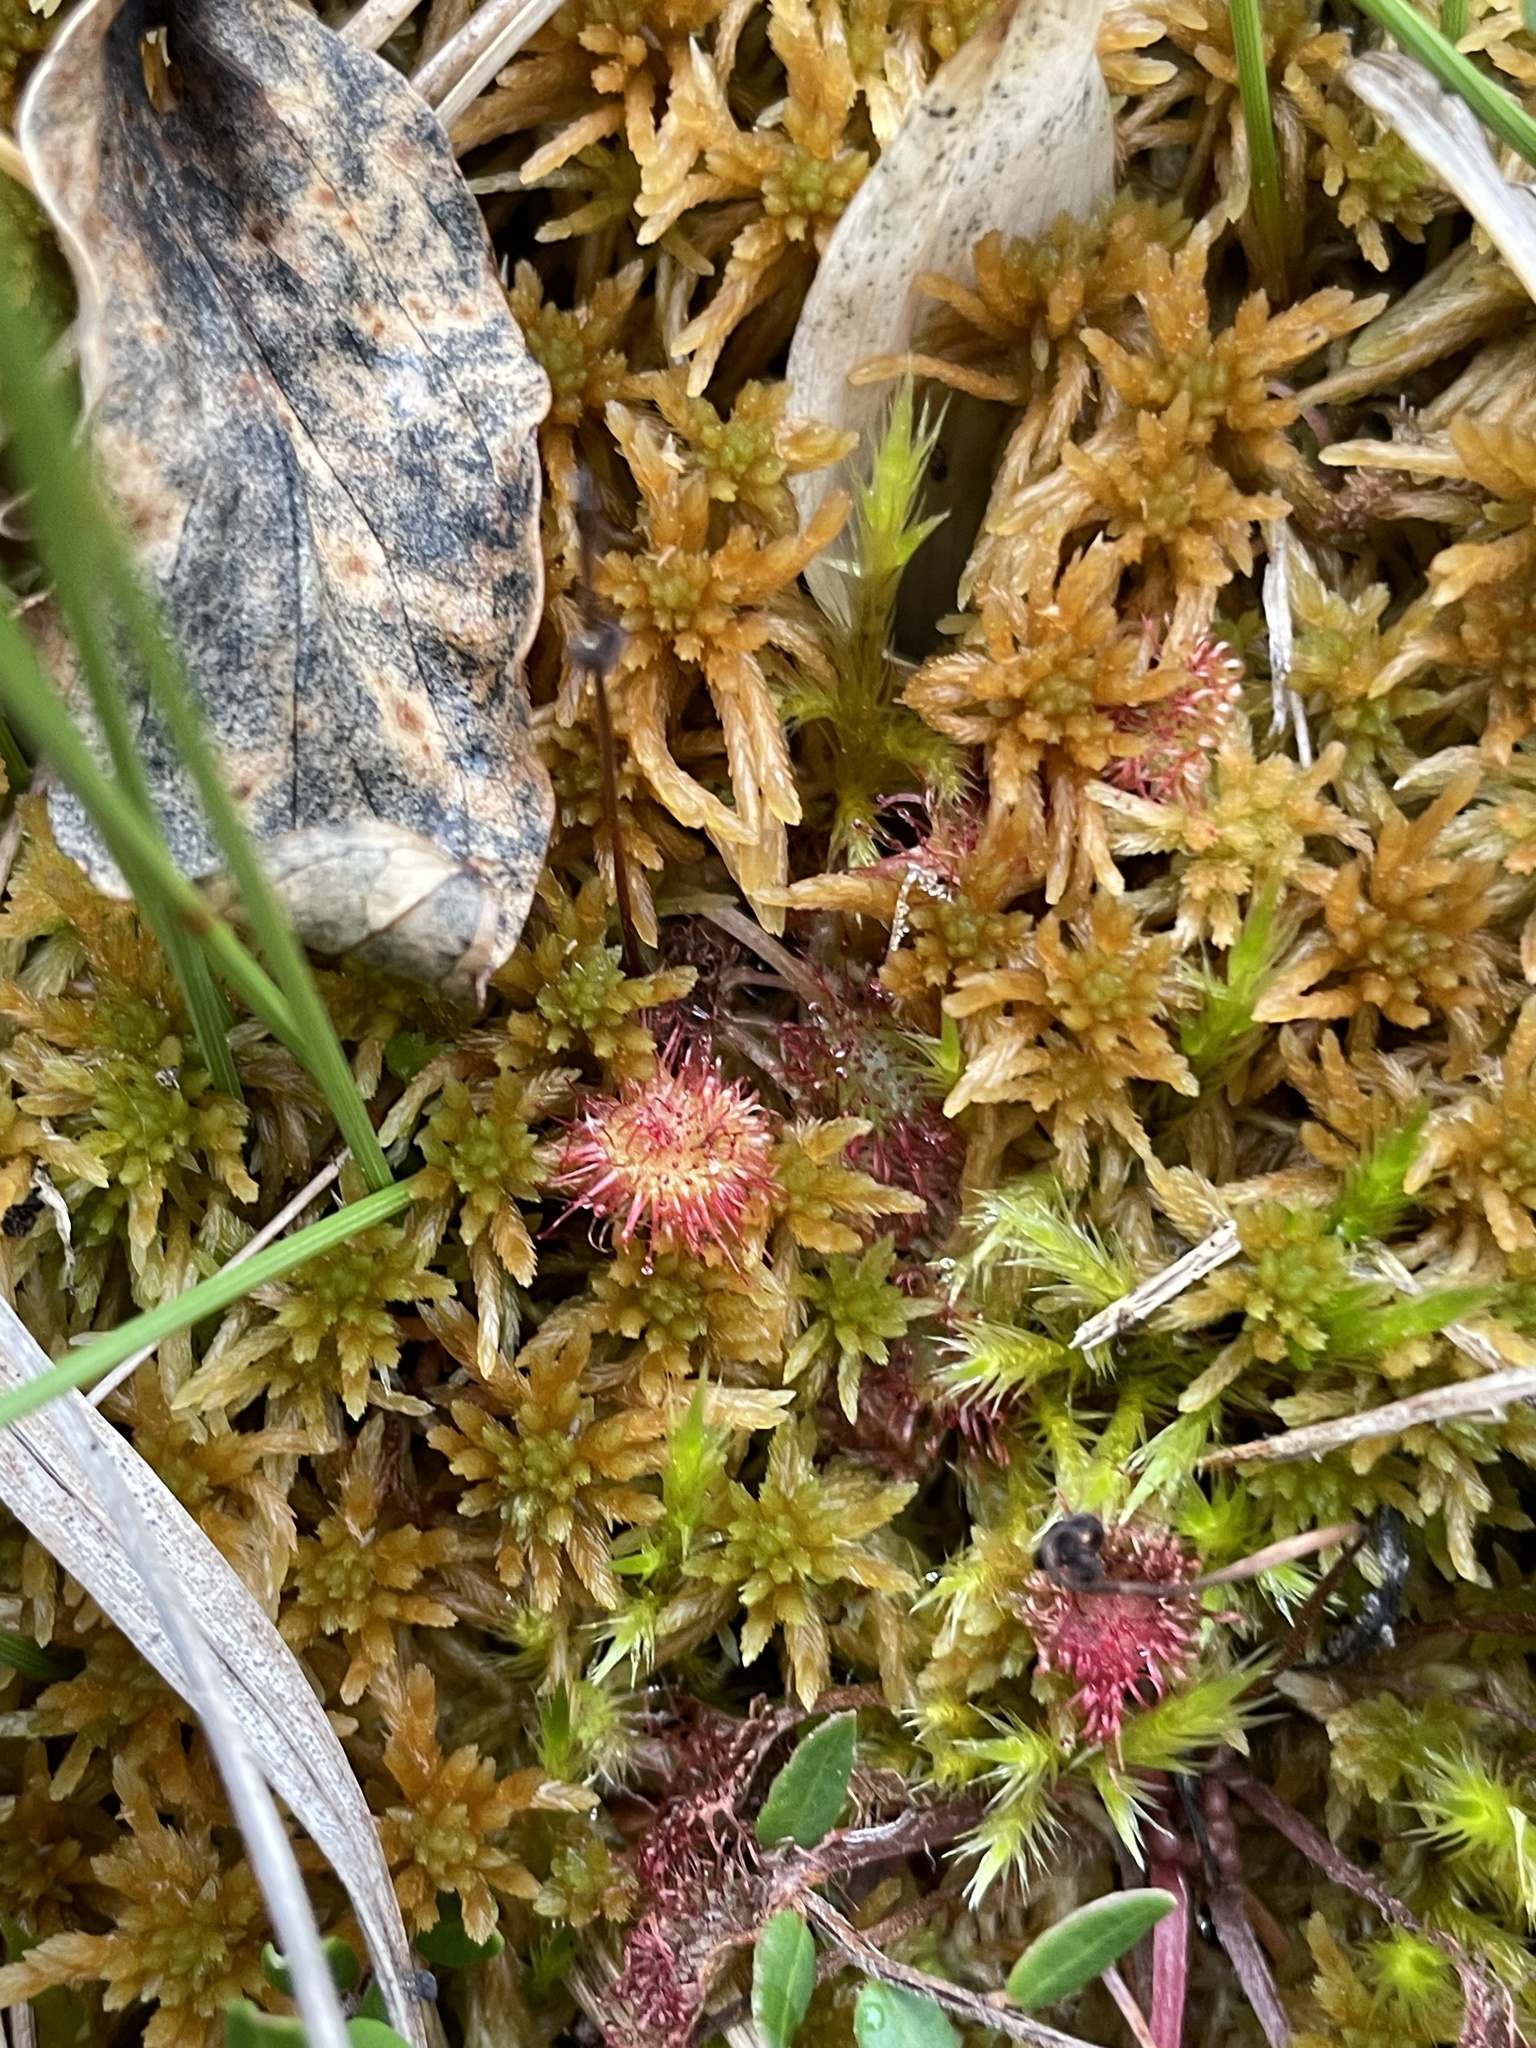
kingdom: Plantae
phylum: Tracheophyta
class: Magnoliopsida
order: Caryophyllales
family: Droseraceae
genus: Drosera
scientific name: Drosera rotundifolia
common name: Round-leaved sundew
